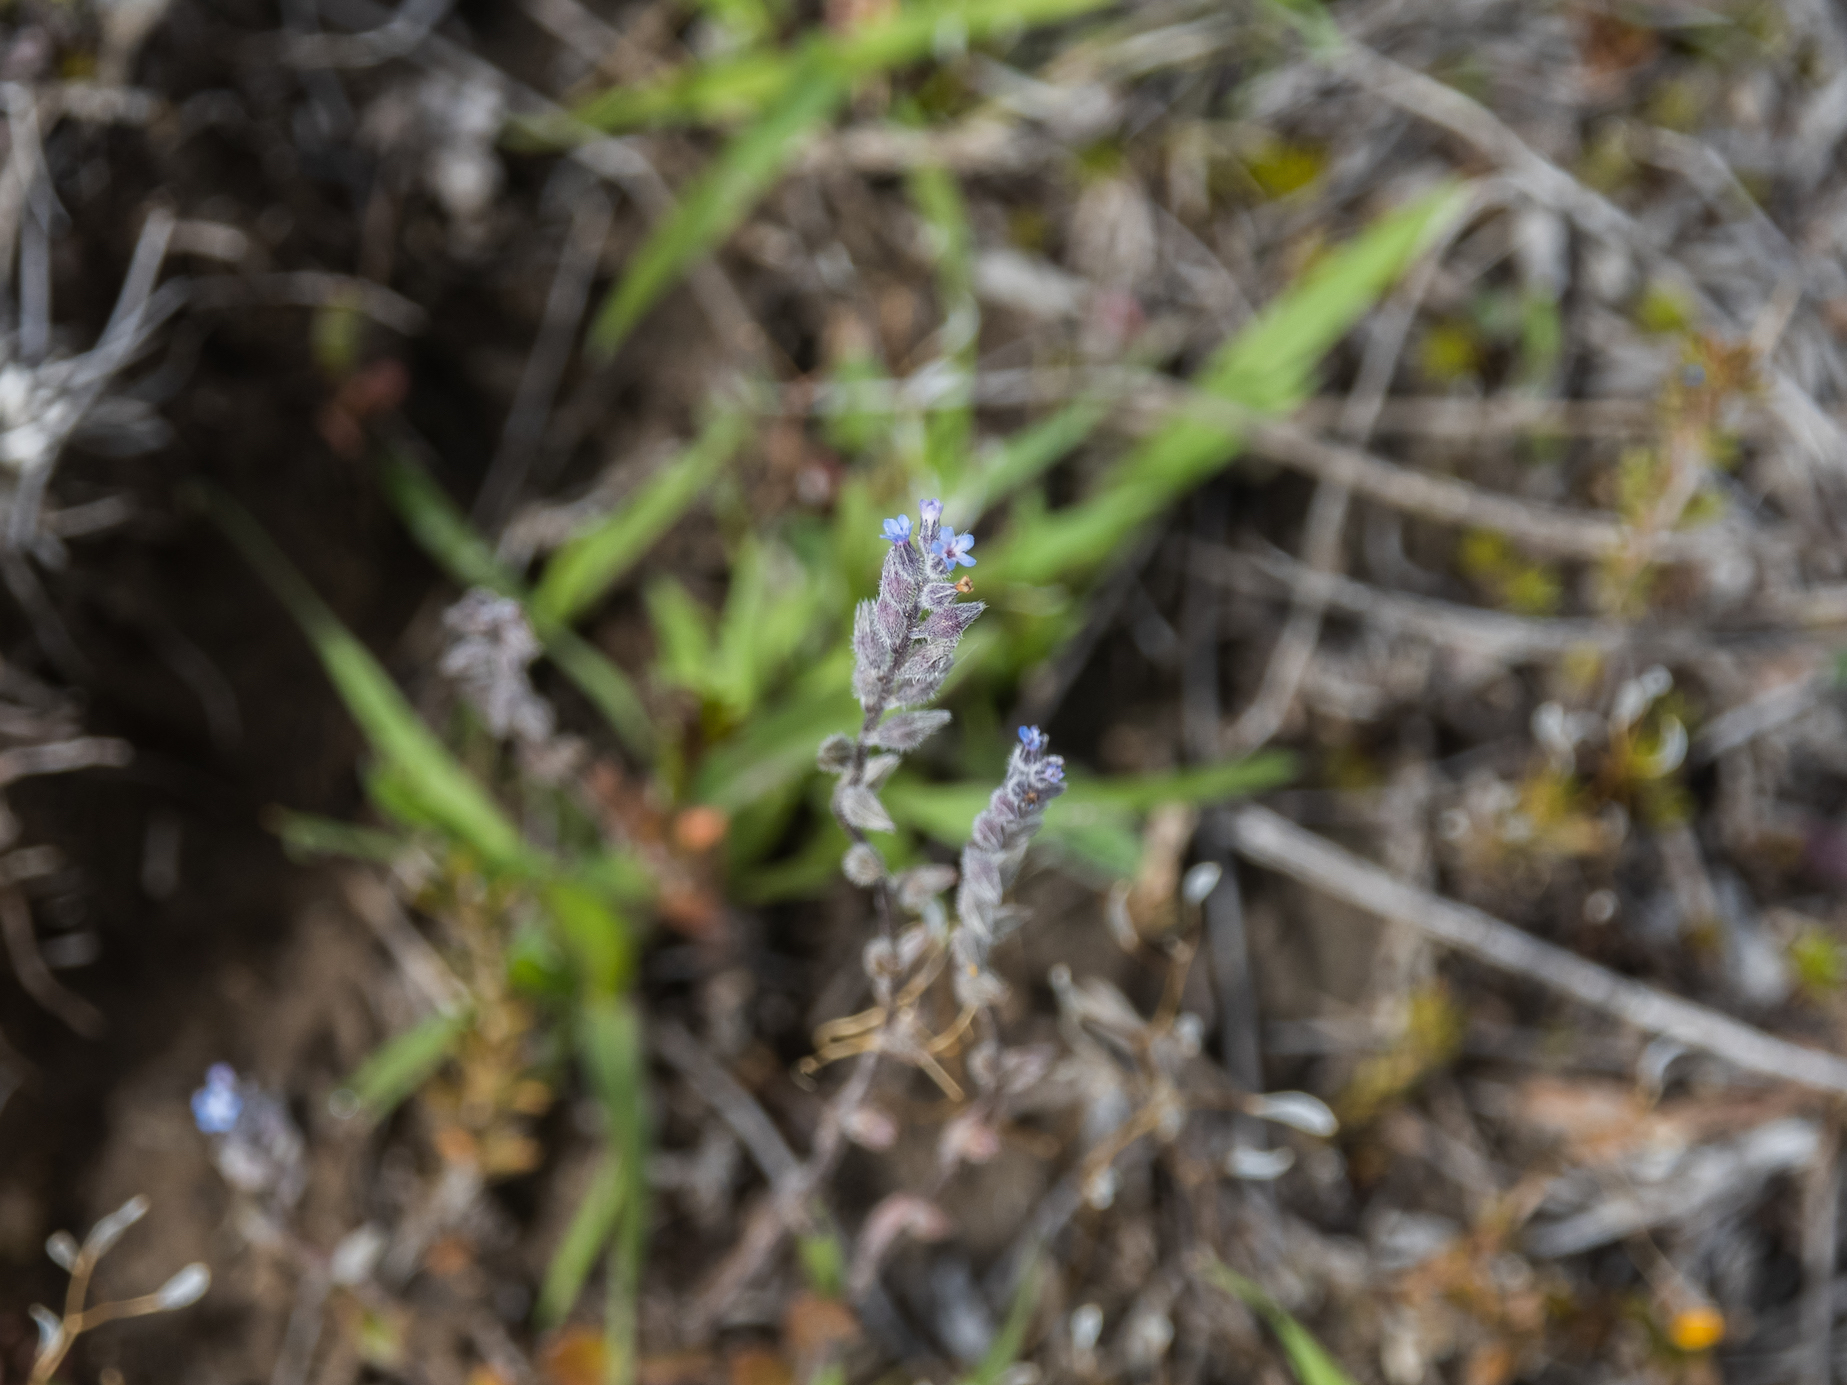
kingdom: Plantae
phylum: Tracheophyta
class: Magnoliopsida
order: Boraginales
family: Boraginaceae
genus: Myosotis
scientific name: Myosotis discolor
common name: Changing forget-me-not
